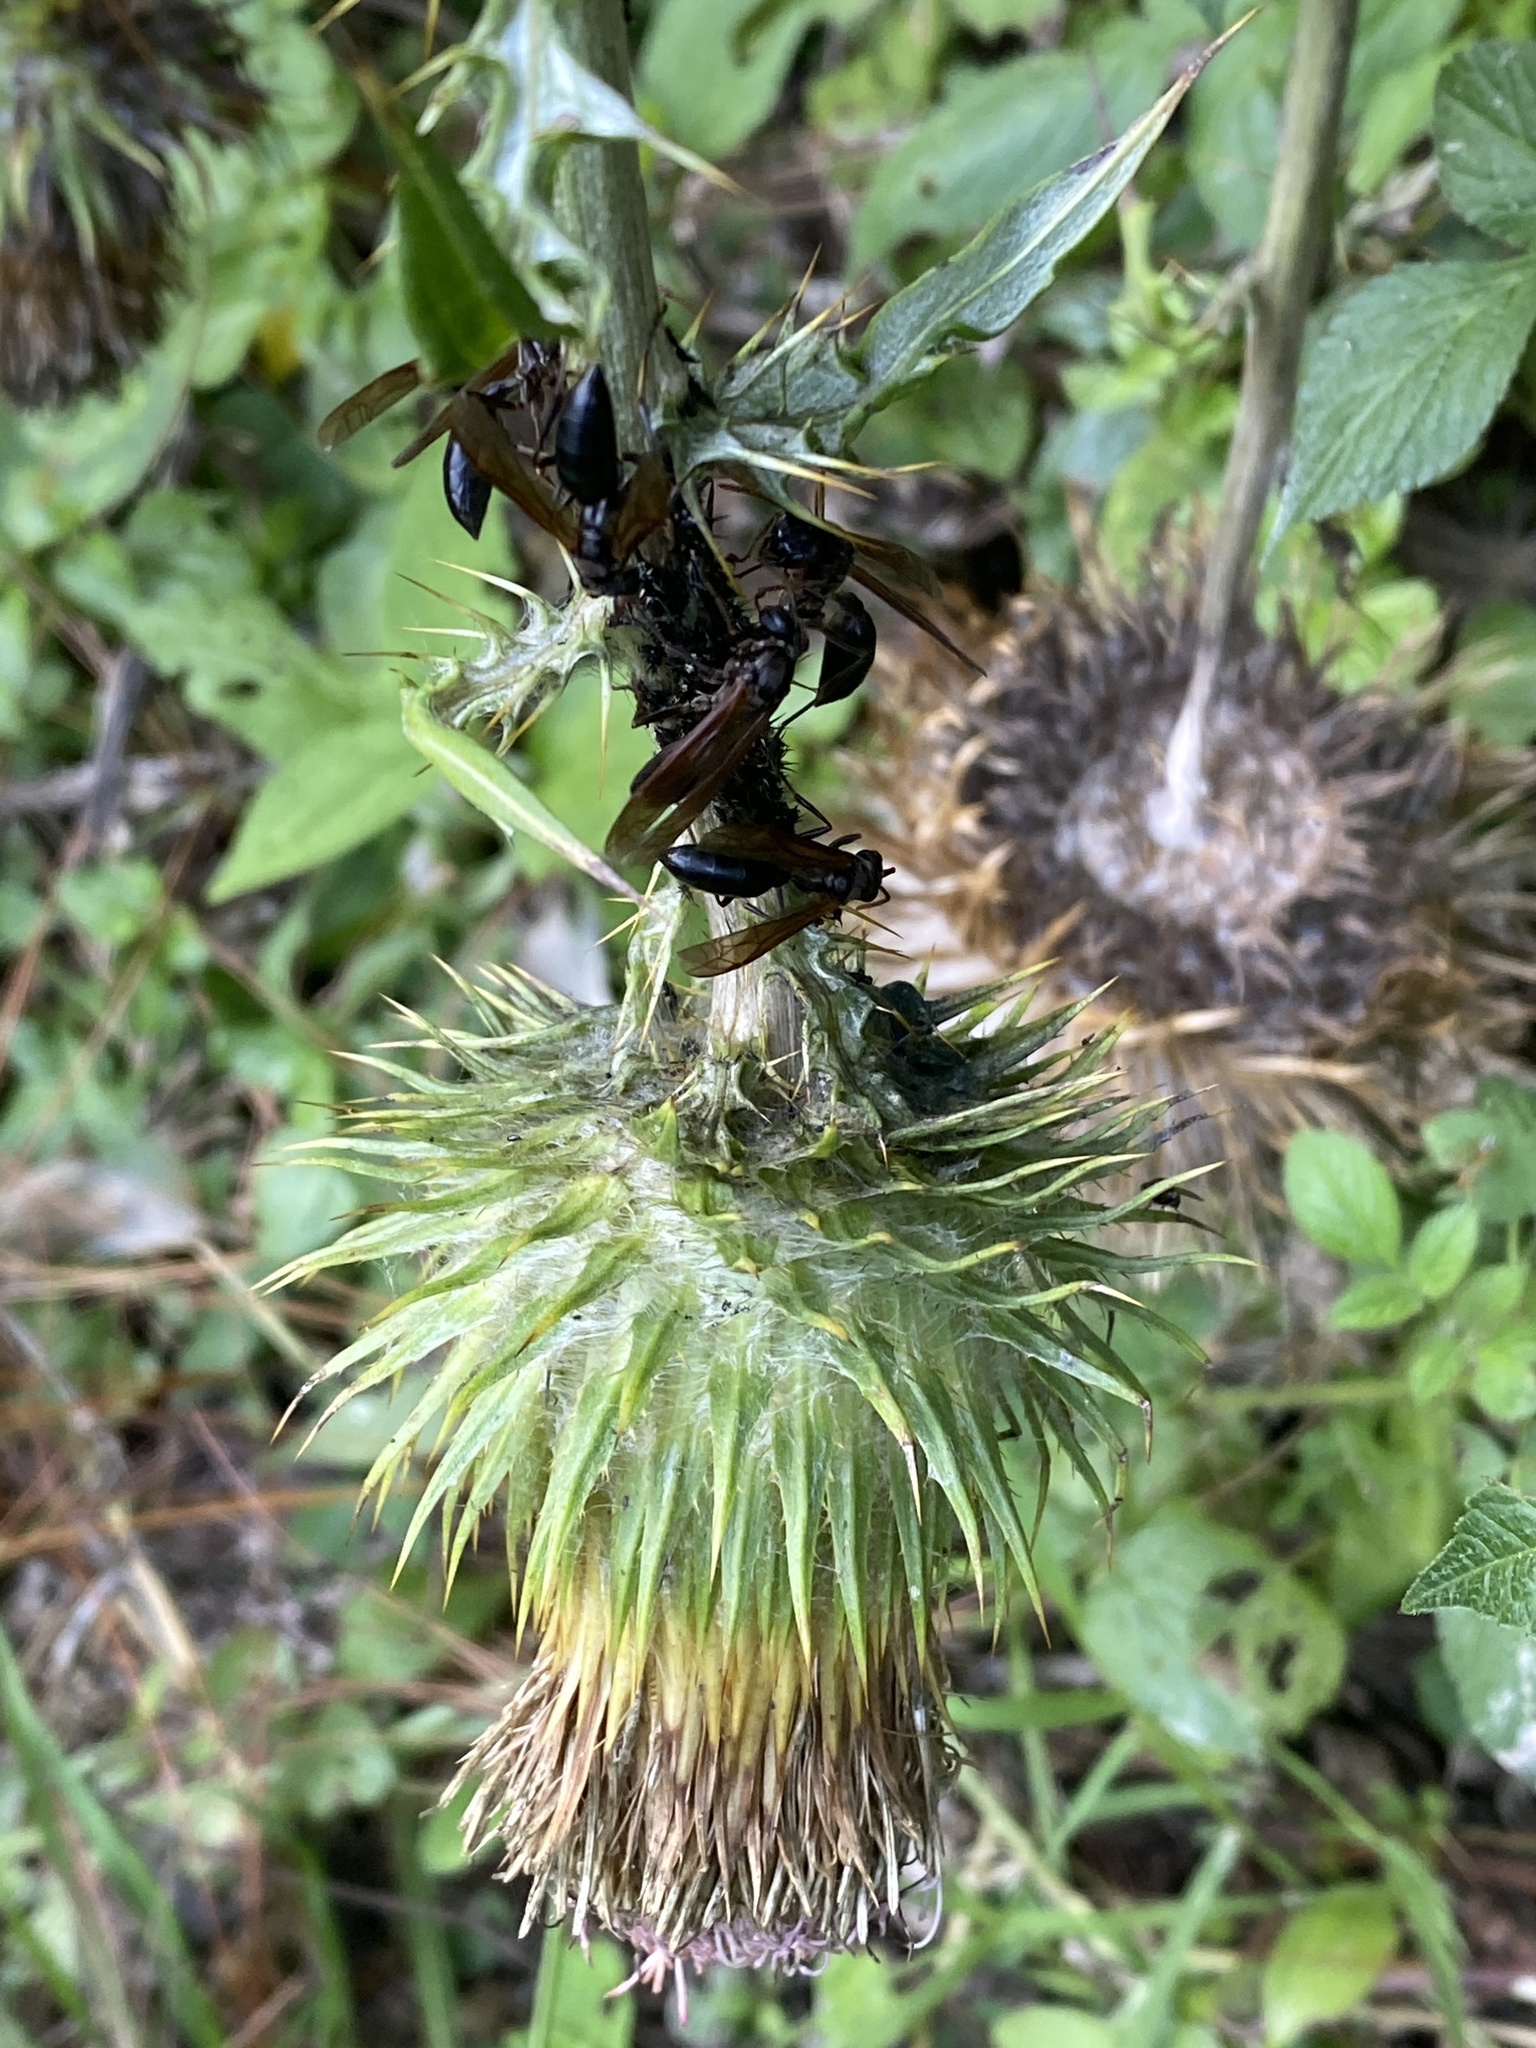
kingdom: Animalia
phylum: Arthropoda
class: Insecta
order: Hymenoptera
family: Vespidae
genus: Agelaia
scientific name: Agelaia panamensis
